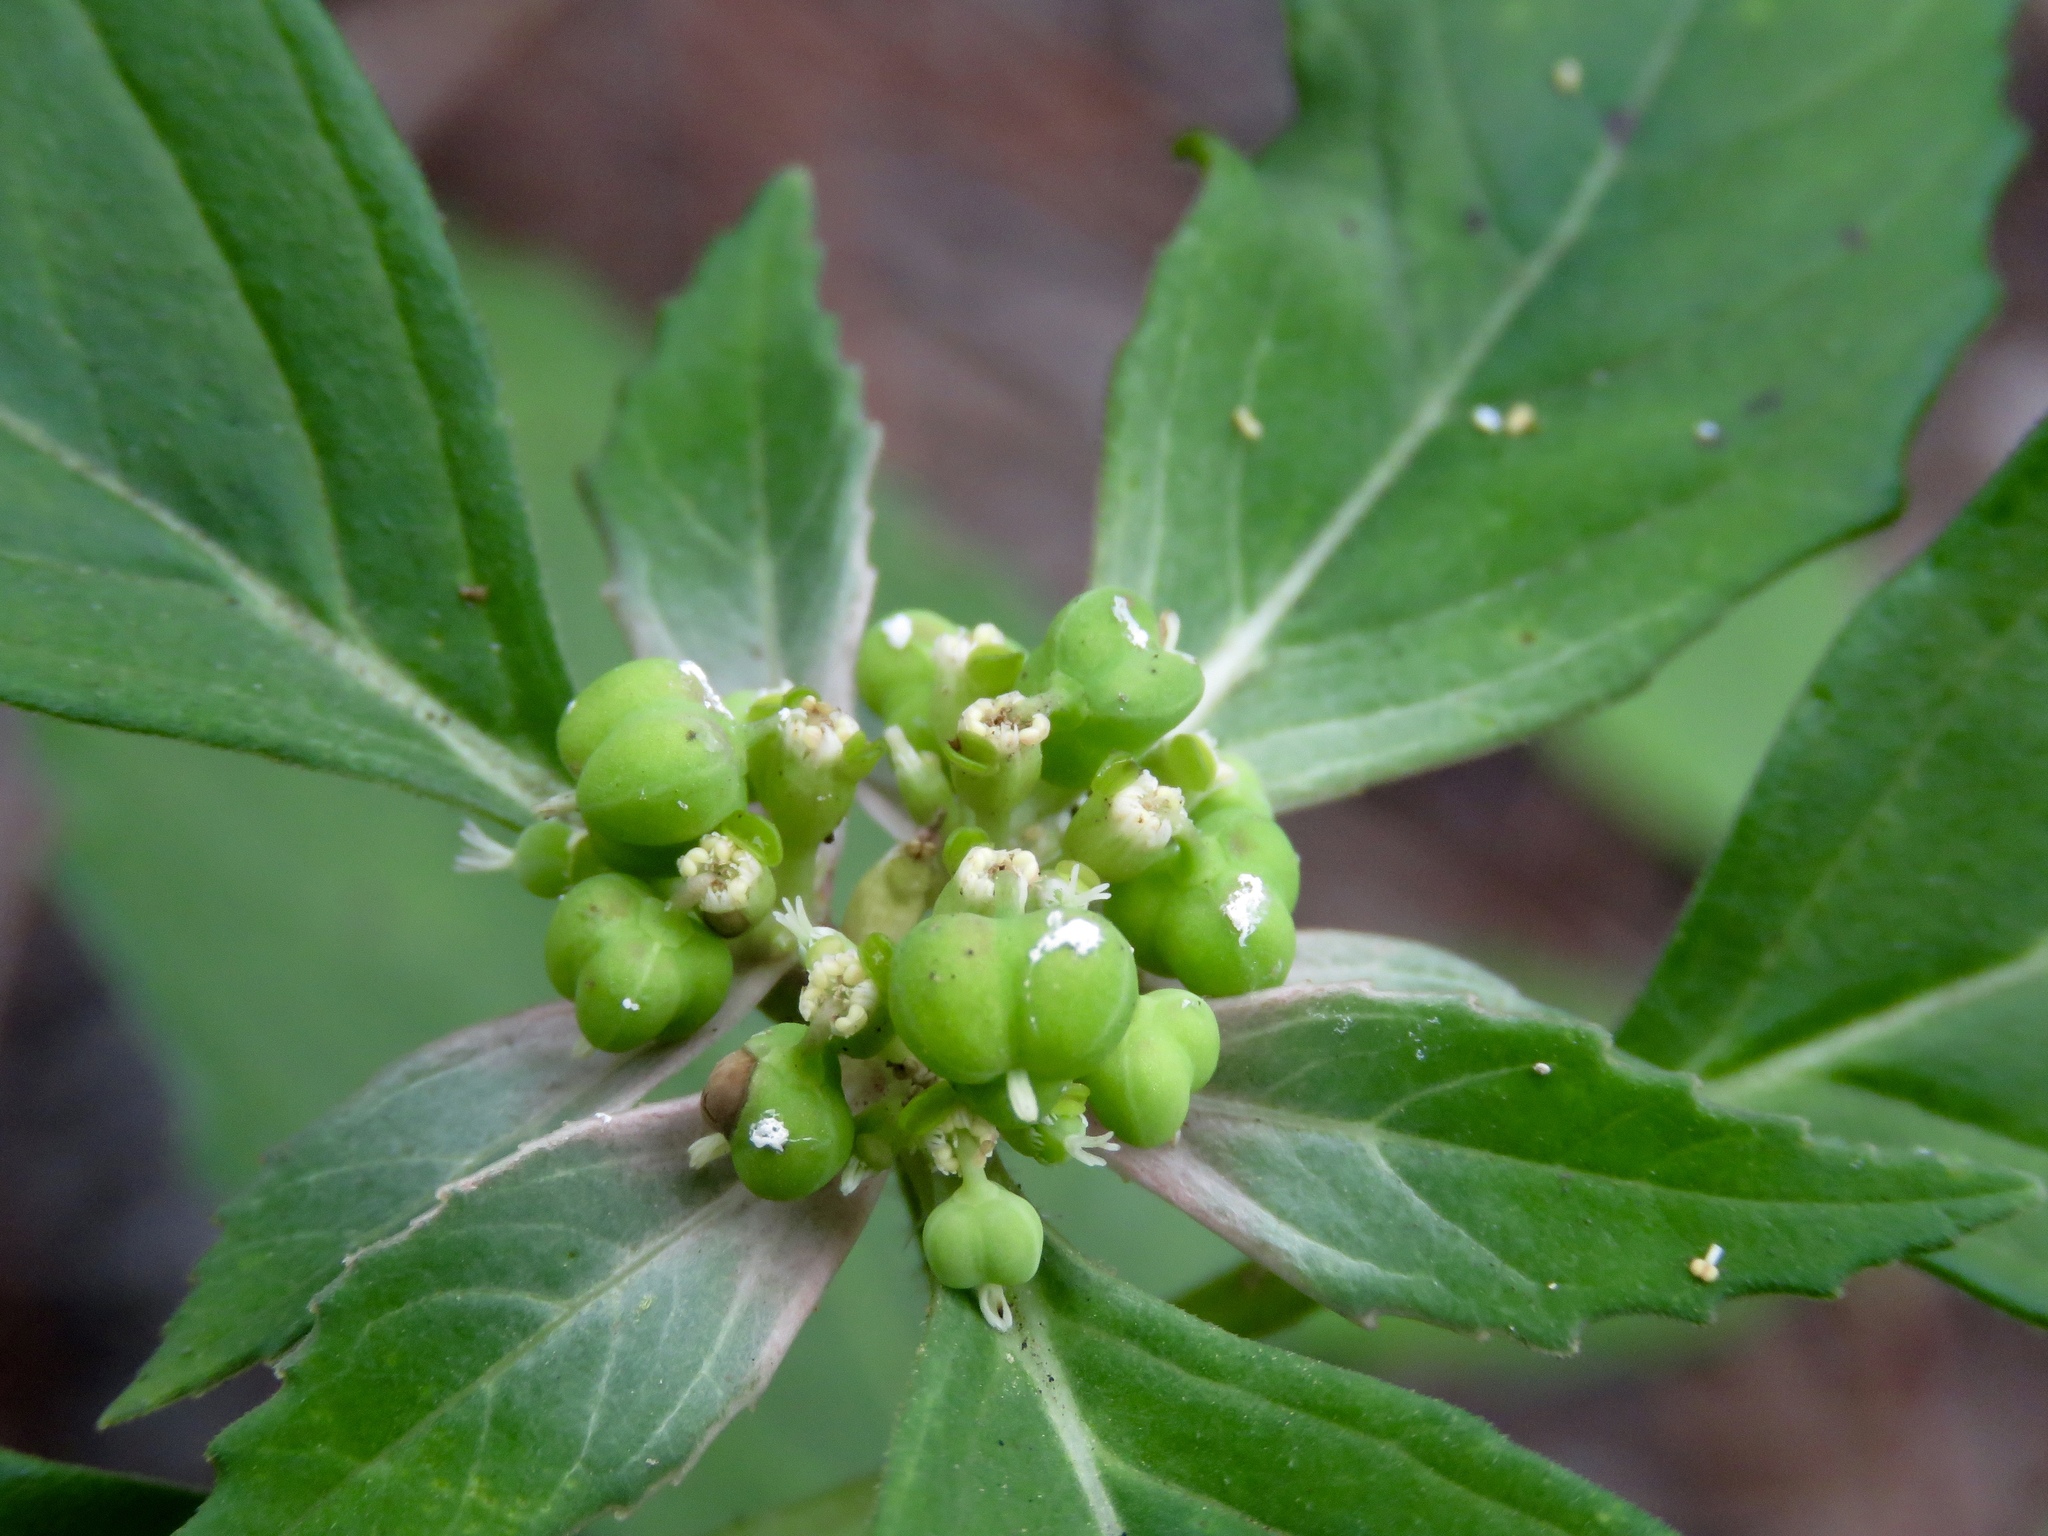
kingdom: Plantae
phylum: Tracheophyta
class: Magnoliopsida
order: Malpighiales
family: Euphorbiaceae
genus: Euphorbia
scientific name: Euphorbia dentata
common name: Dentate spurge
